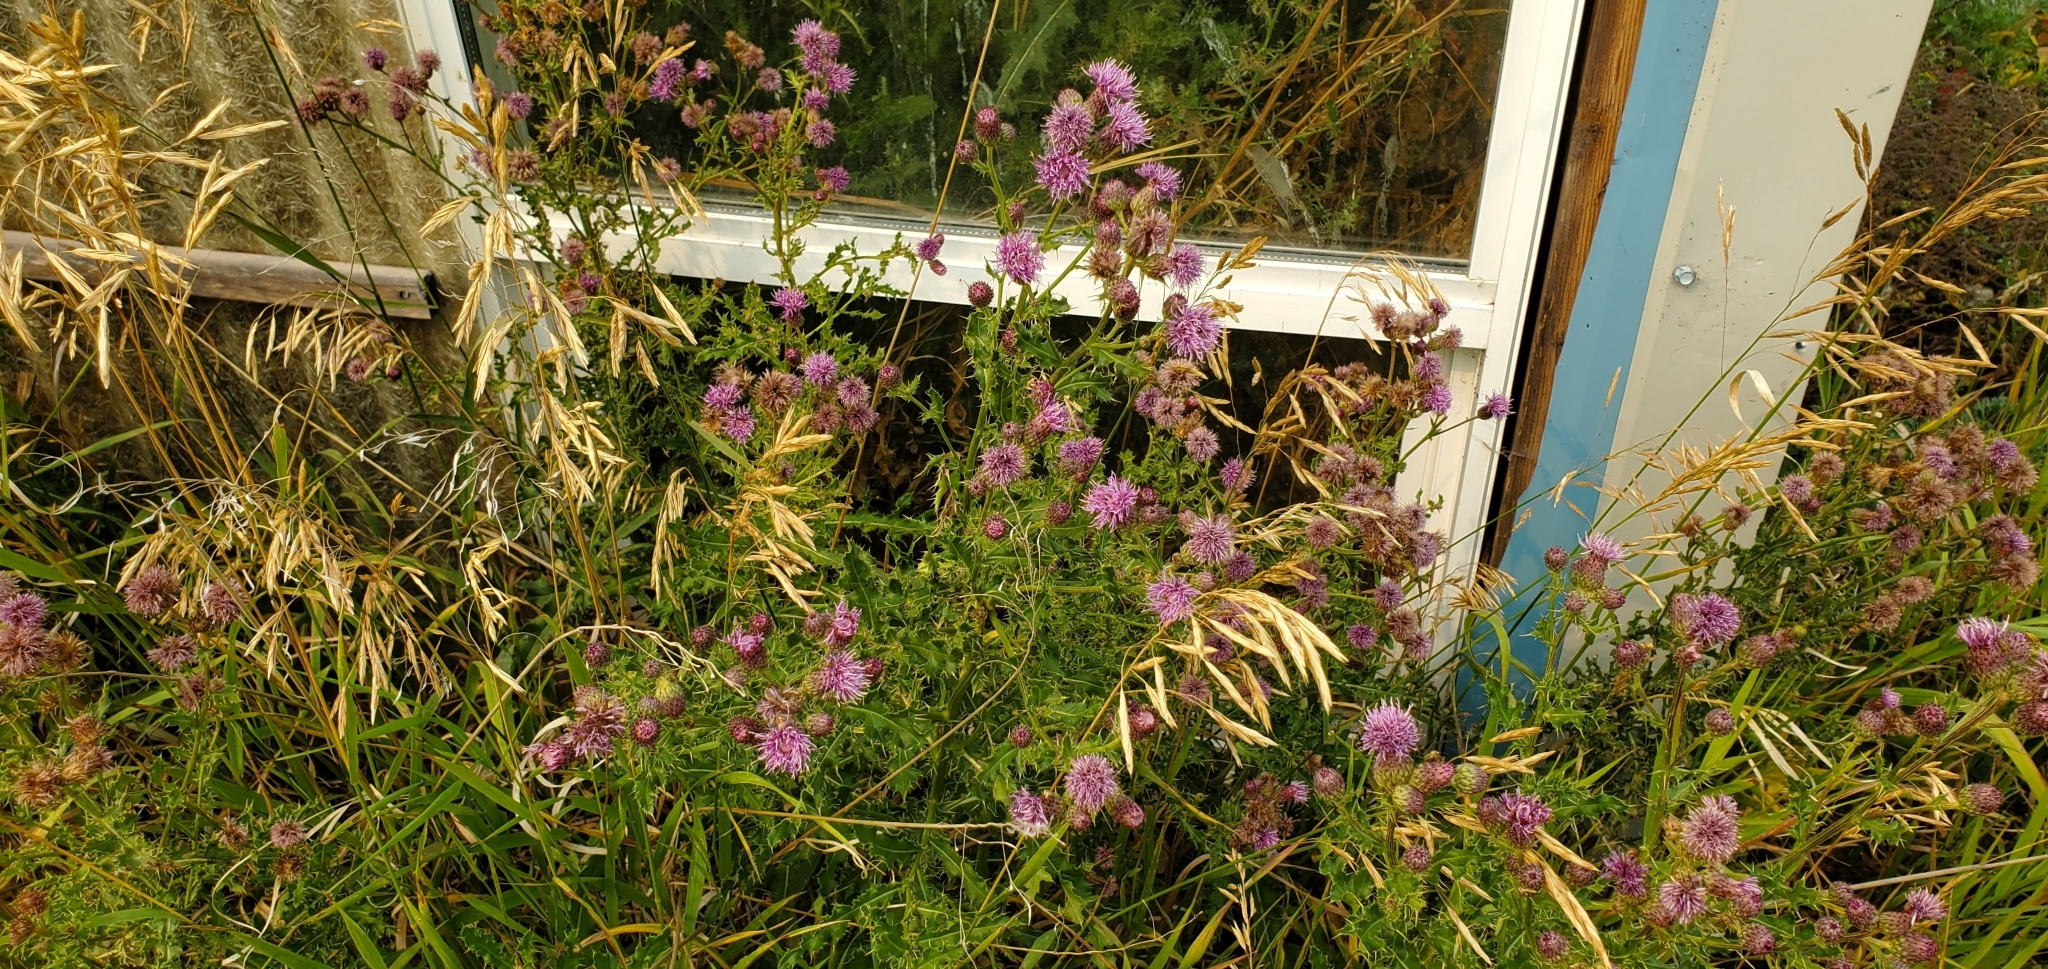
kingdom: Plantae
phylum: Tracheophyta
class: Magnoliopsida
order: Asterales
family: Asteraceae
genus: Cirsium
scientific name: Cirsium arvense
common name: Creeping thistle
